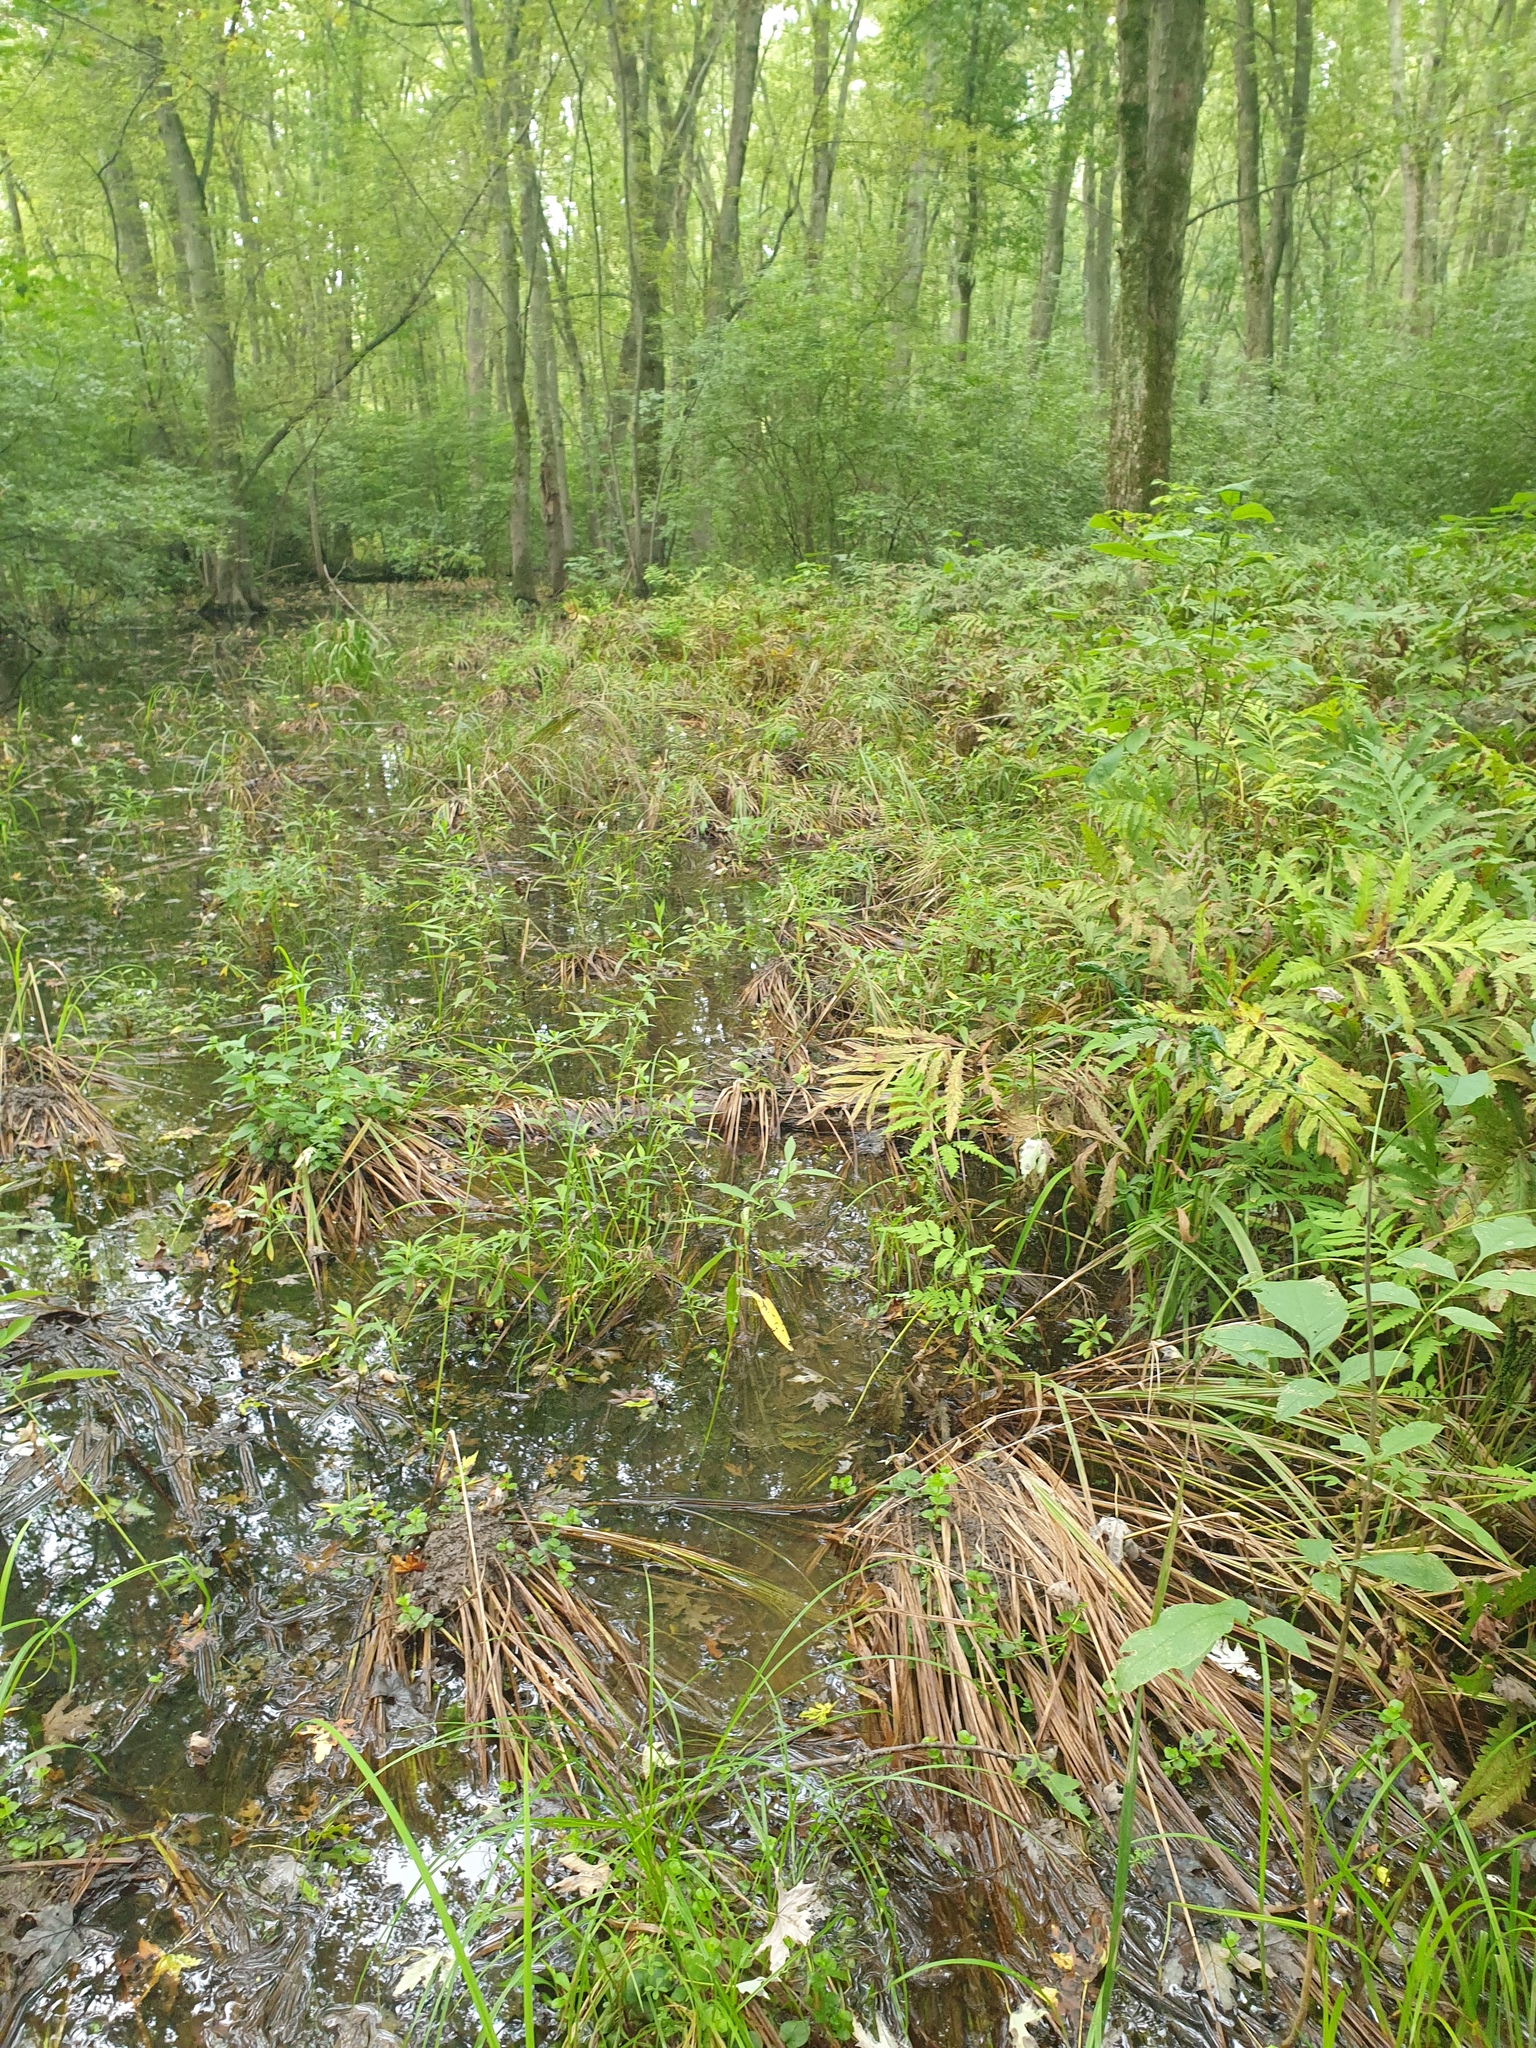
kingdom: Plantae
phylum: Tracheophyta
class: Liliopsida
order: Poales
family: Cyperaceae
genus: Carex
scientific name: Carex tuckermanii
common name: Tuckerman's sedge
